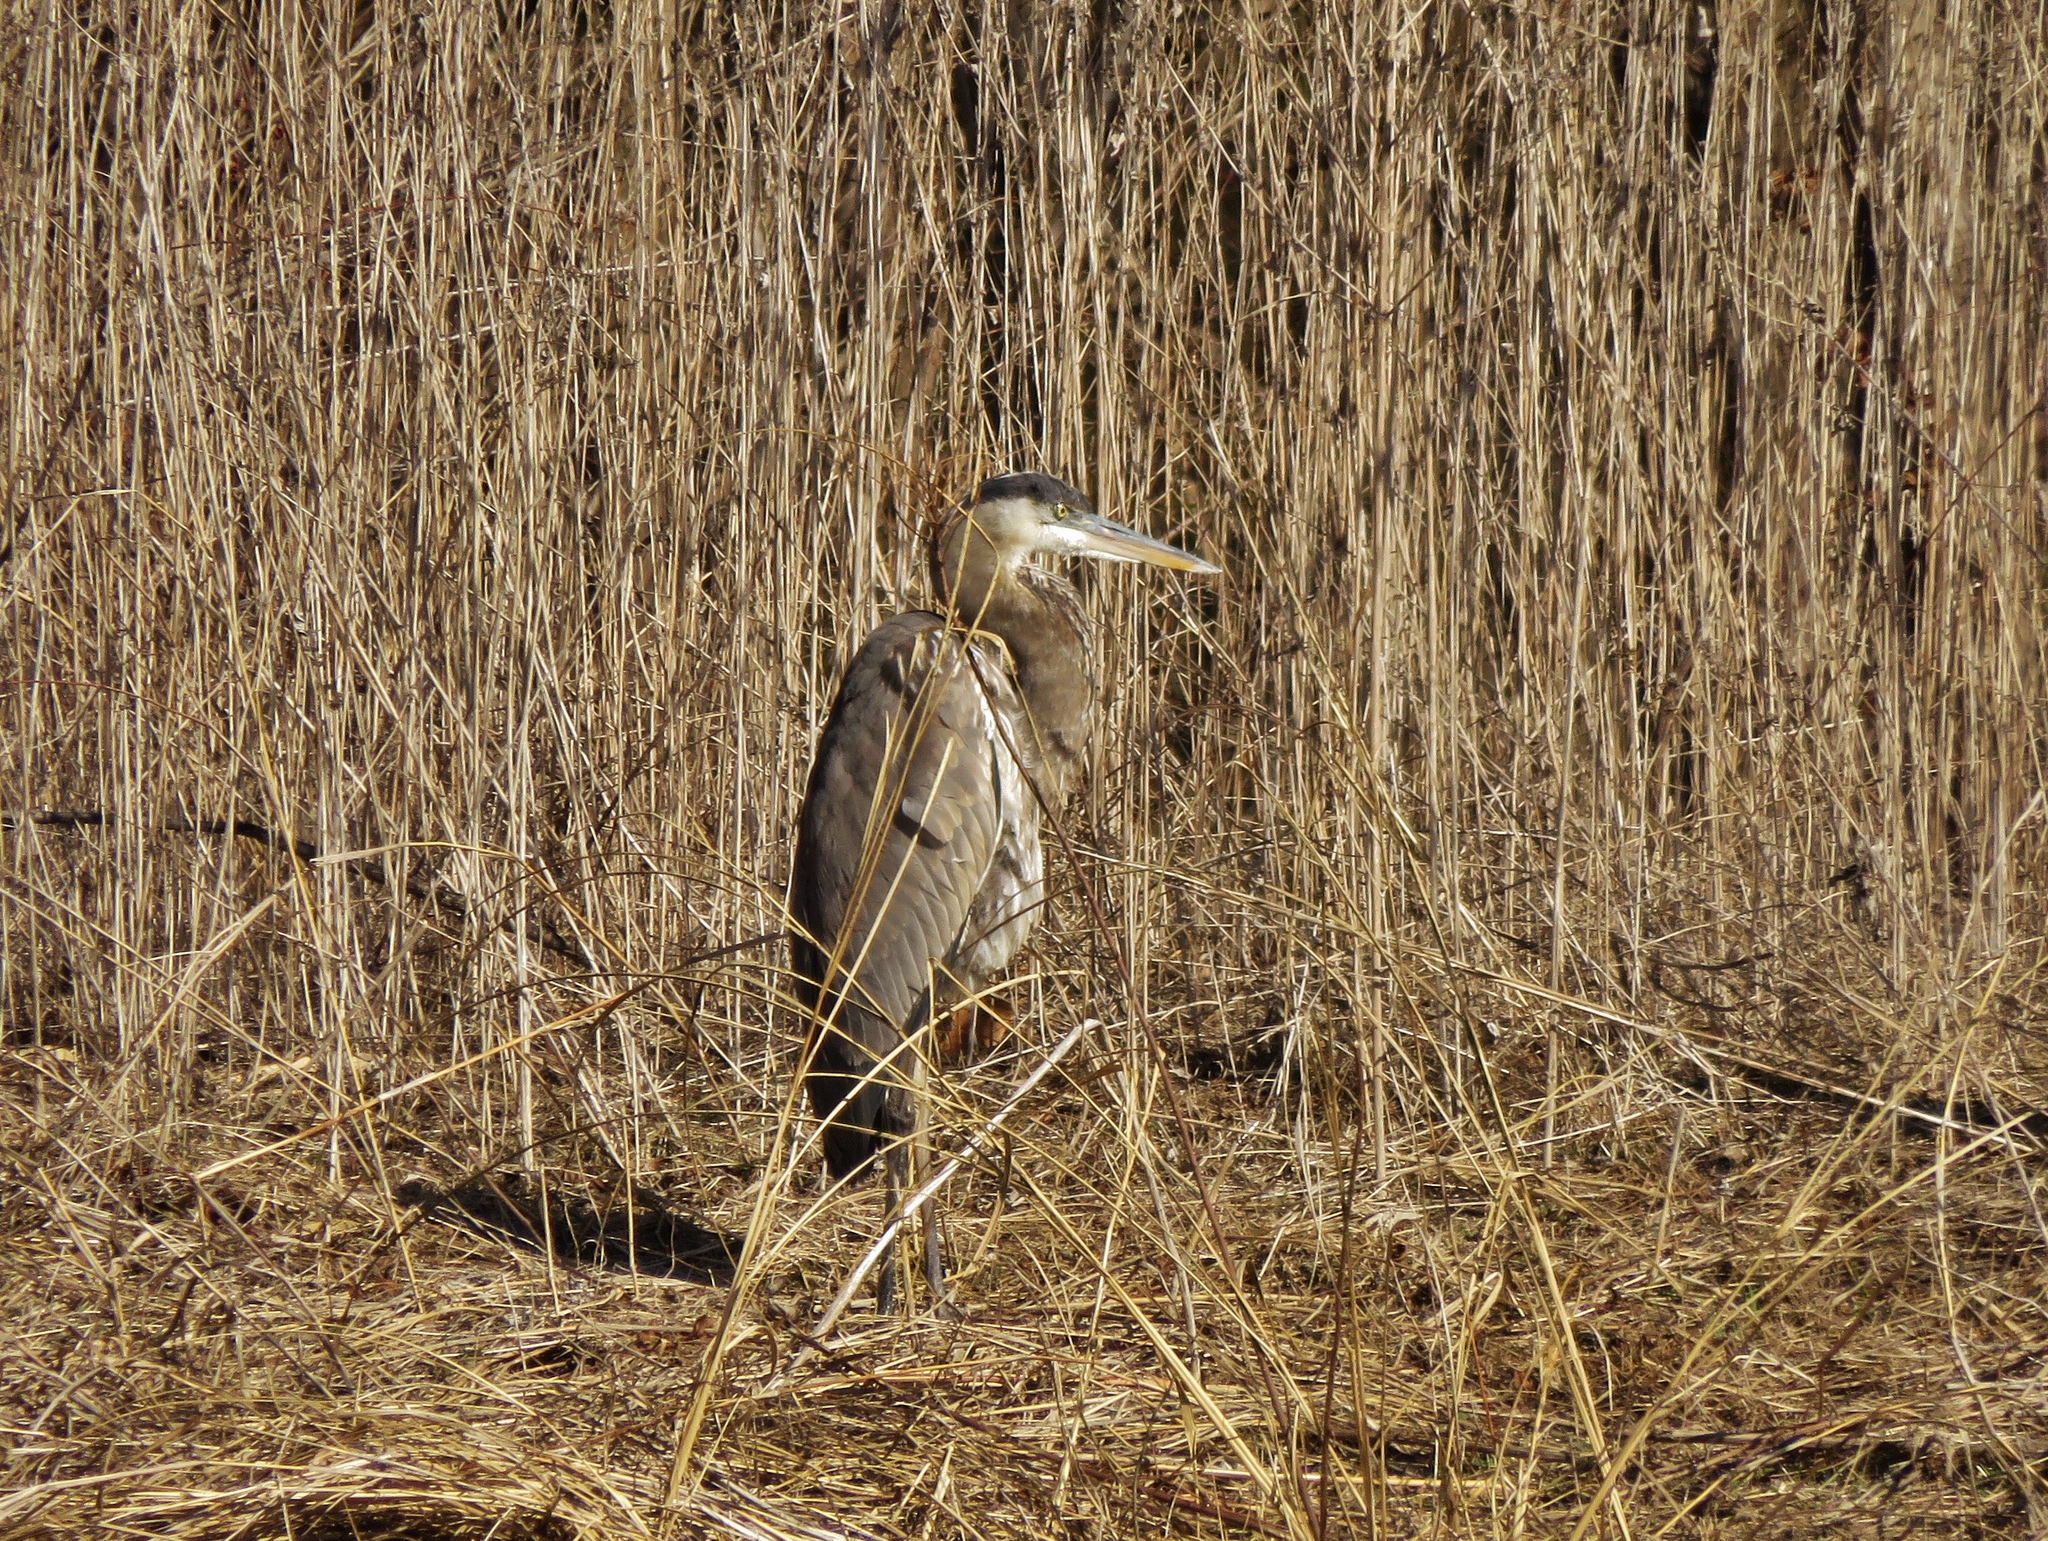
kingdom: Animalia
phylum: Chordata
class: Aves
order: Pelecaniformes
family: Ardeidae
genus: Ardea
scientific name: Ardea herodias
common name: Great blue heron
